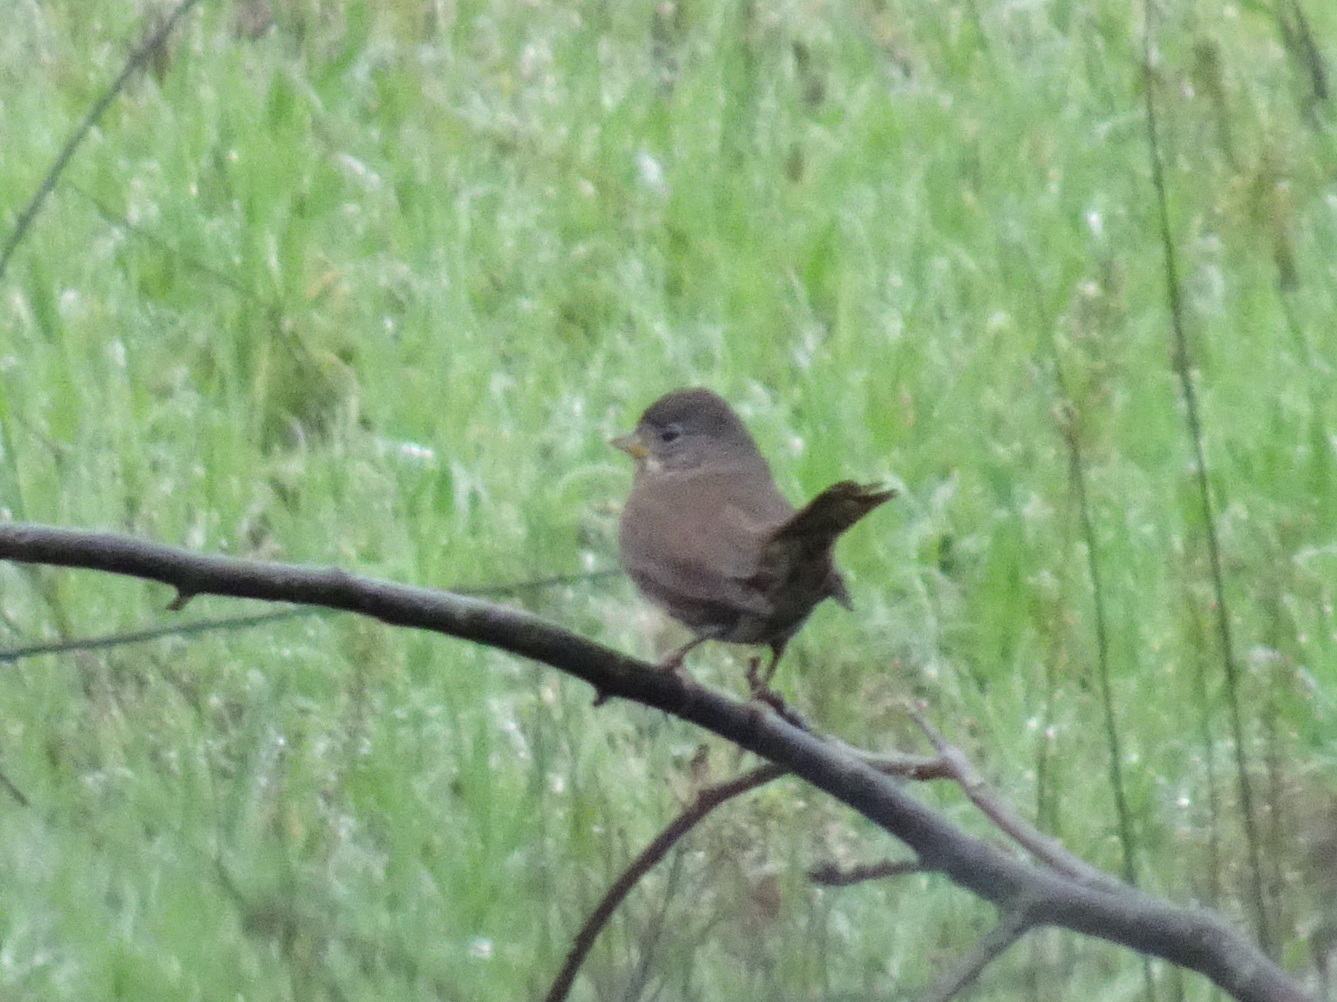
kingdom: Animalia
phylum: Chordata
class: Aves
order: Passeriformes
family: Passerellidae
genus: Passerella
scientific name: Passerella iliaca
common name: Fox sparrow
